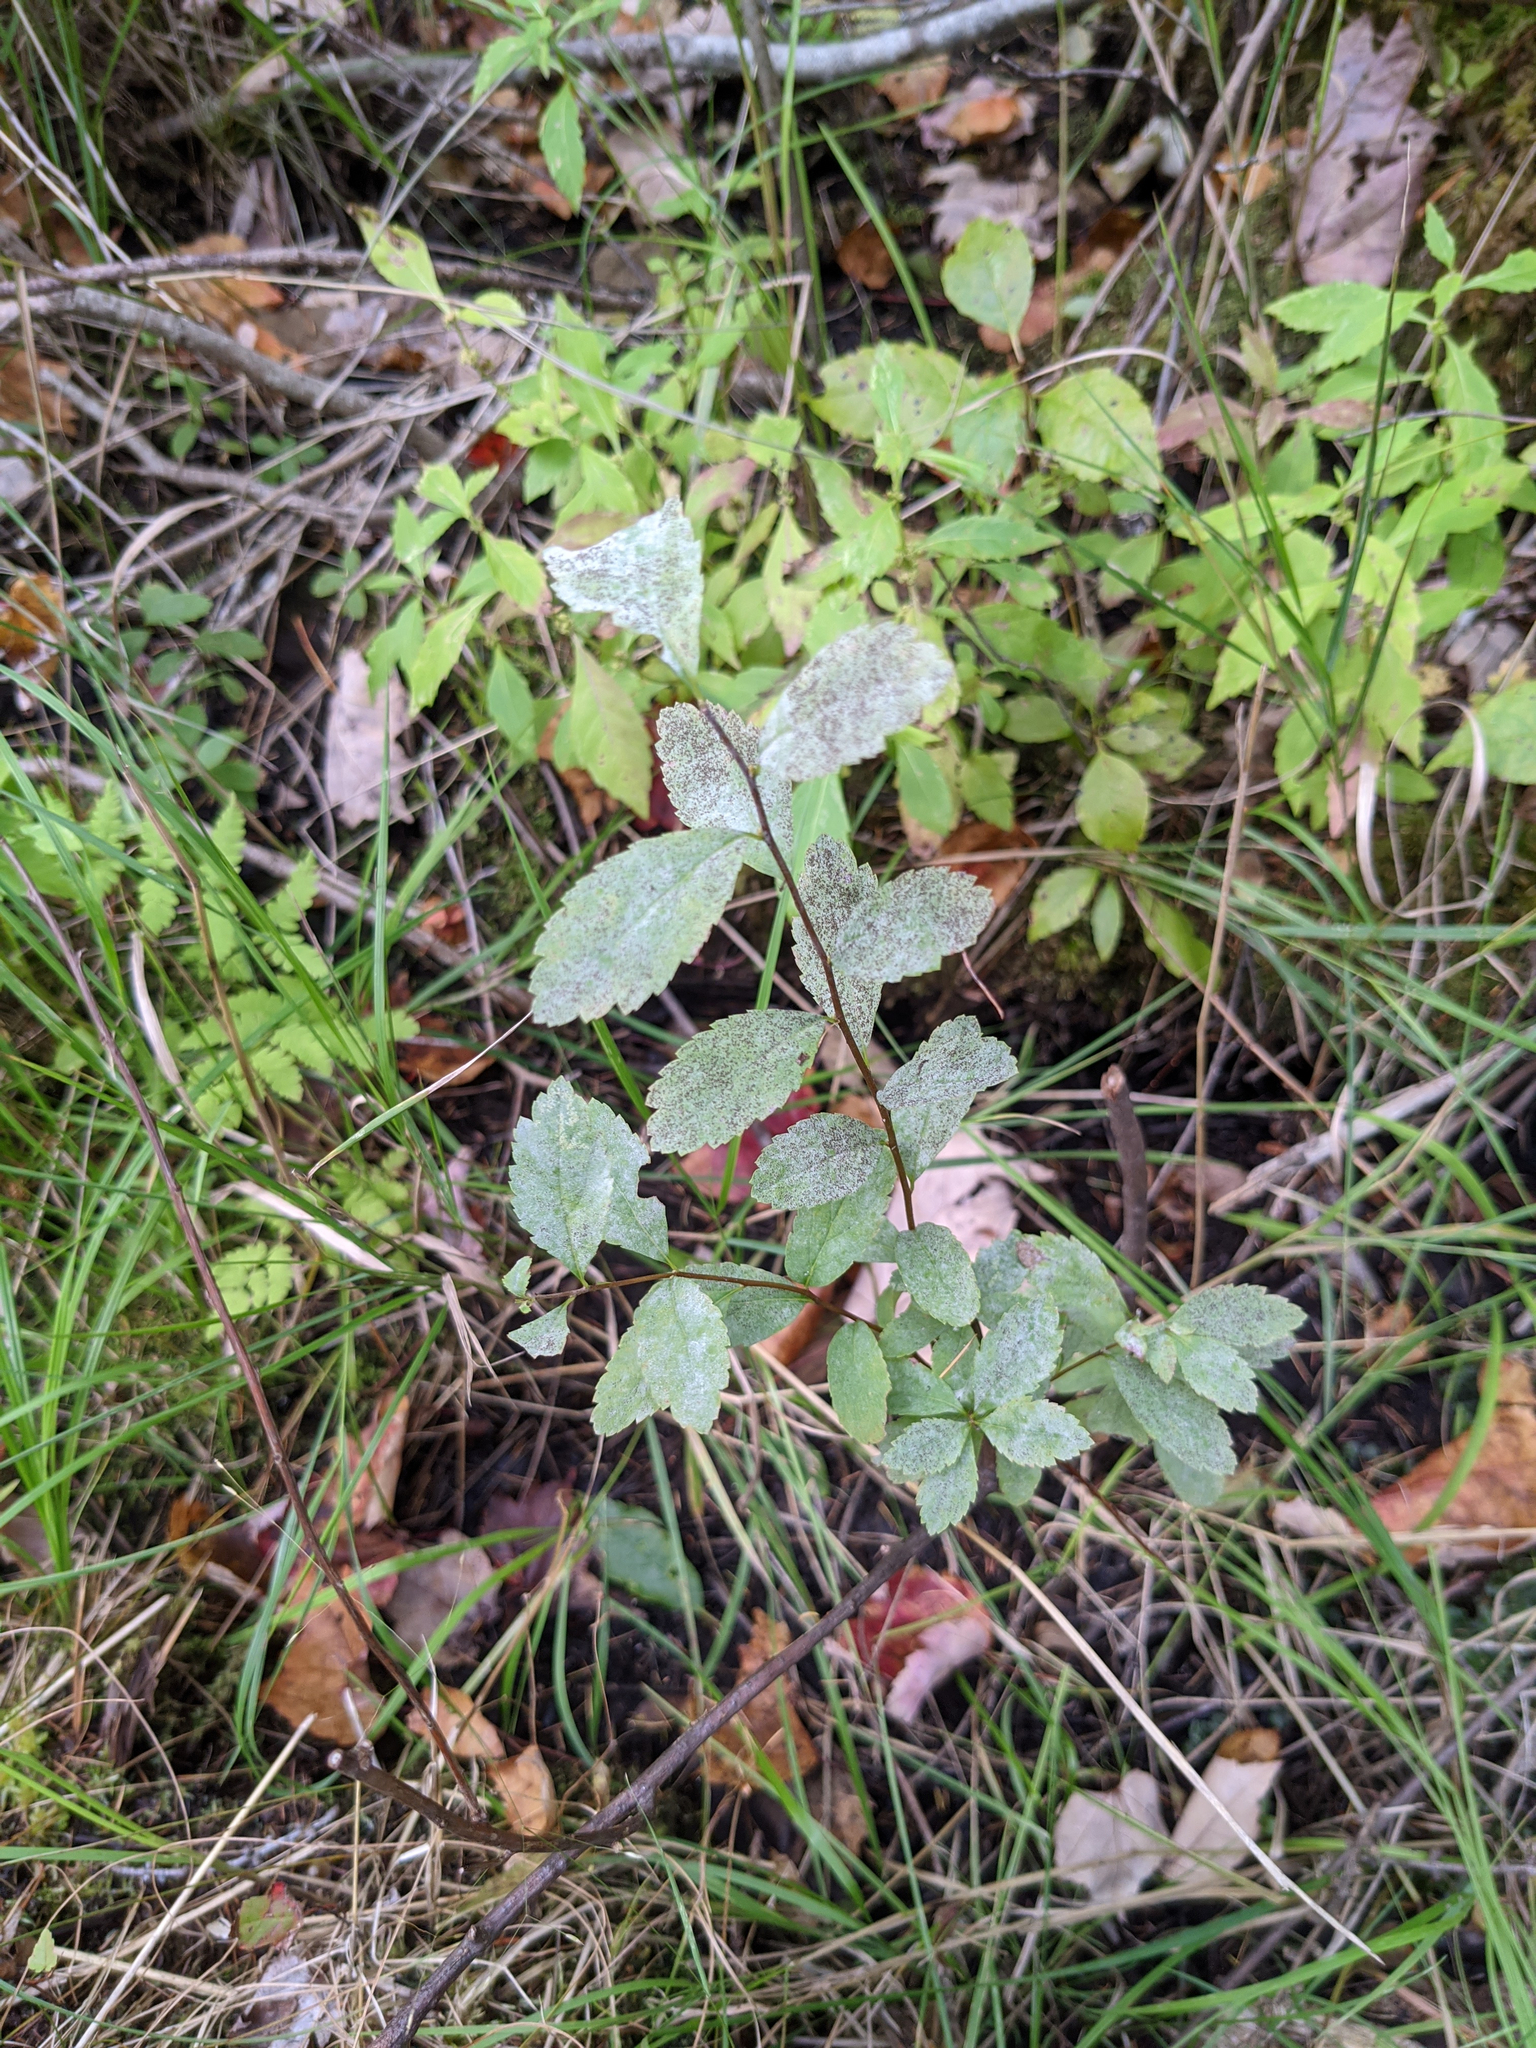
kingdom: Plantae
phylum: Tracheophyta
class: Magnoliopsida
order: Rosales
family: Rosaceae
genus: Spiraea
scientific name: Spiraea alba
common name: Pale bridewort
